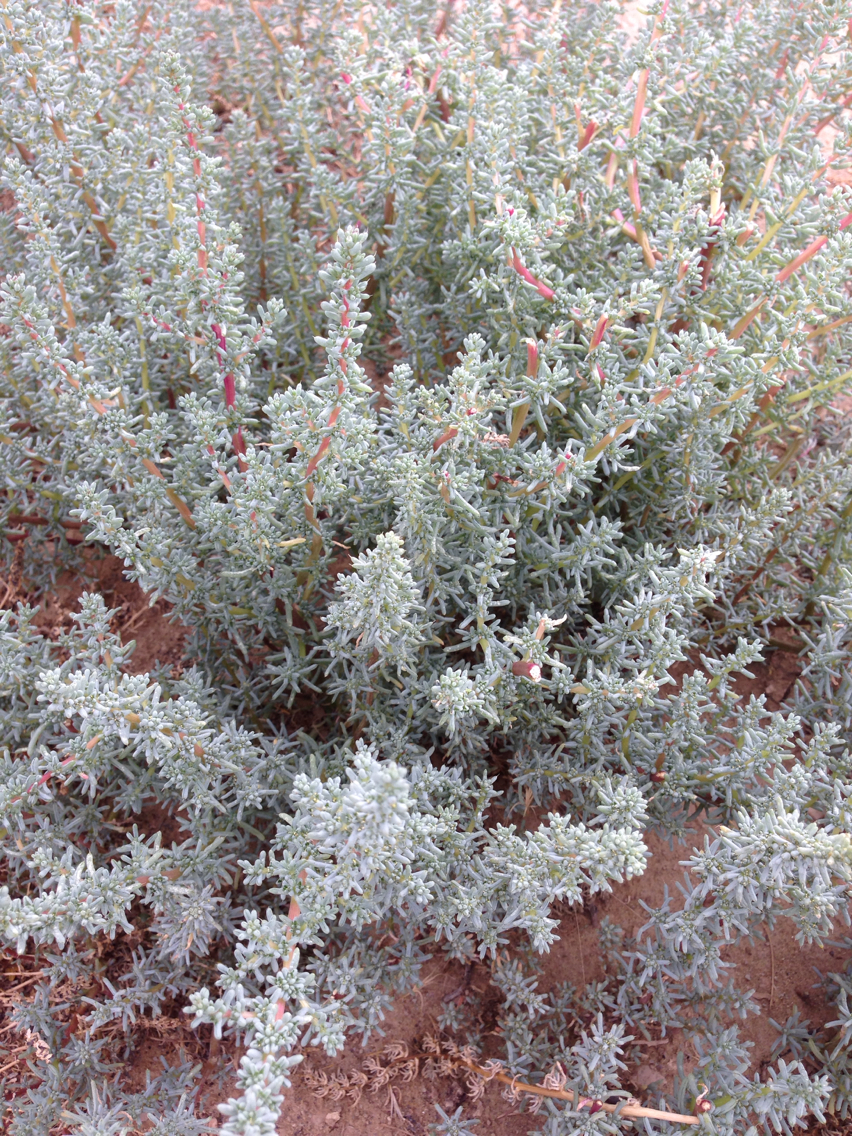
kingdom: Plantae
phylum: Tracheophyta
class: Magnoliopsida
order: Caryophyllales
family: Amaranthaceae
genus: Halogeton
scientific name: Halogeton glomeratus
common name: Saltlover
